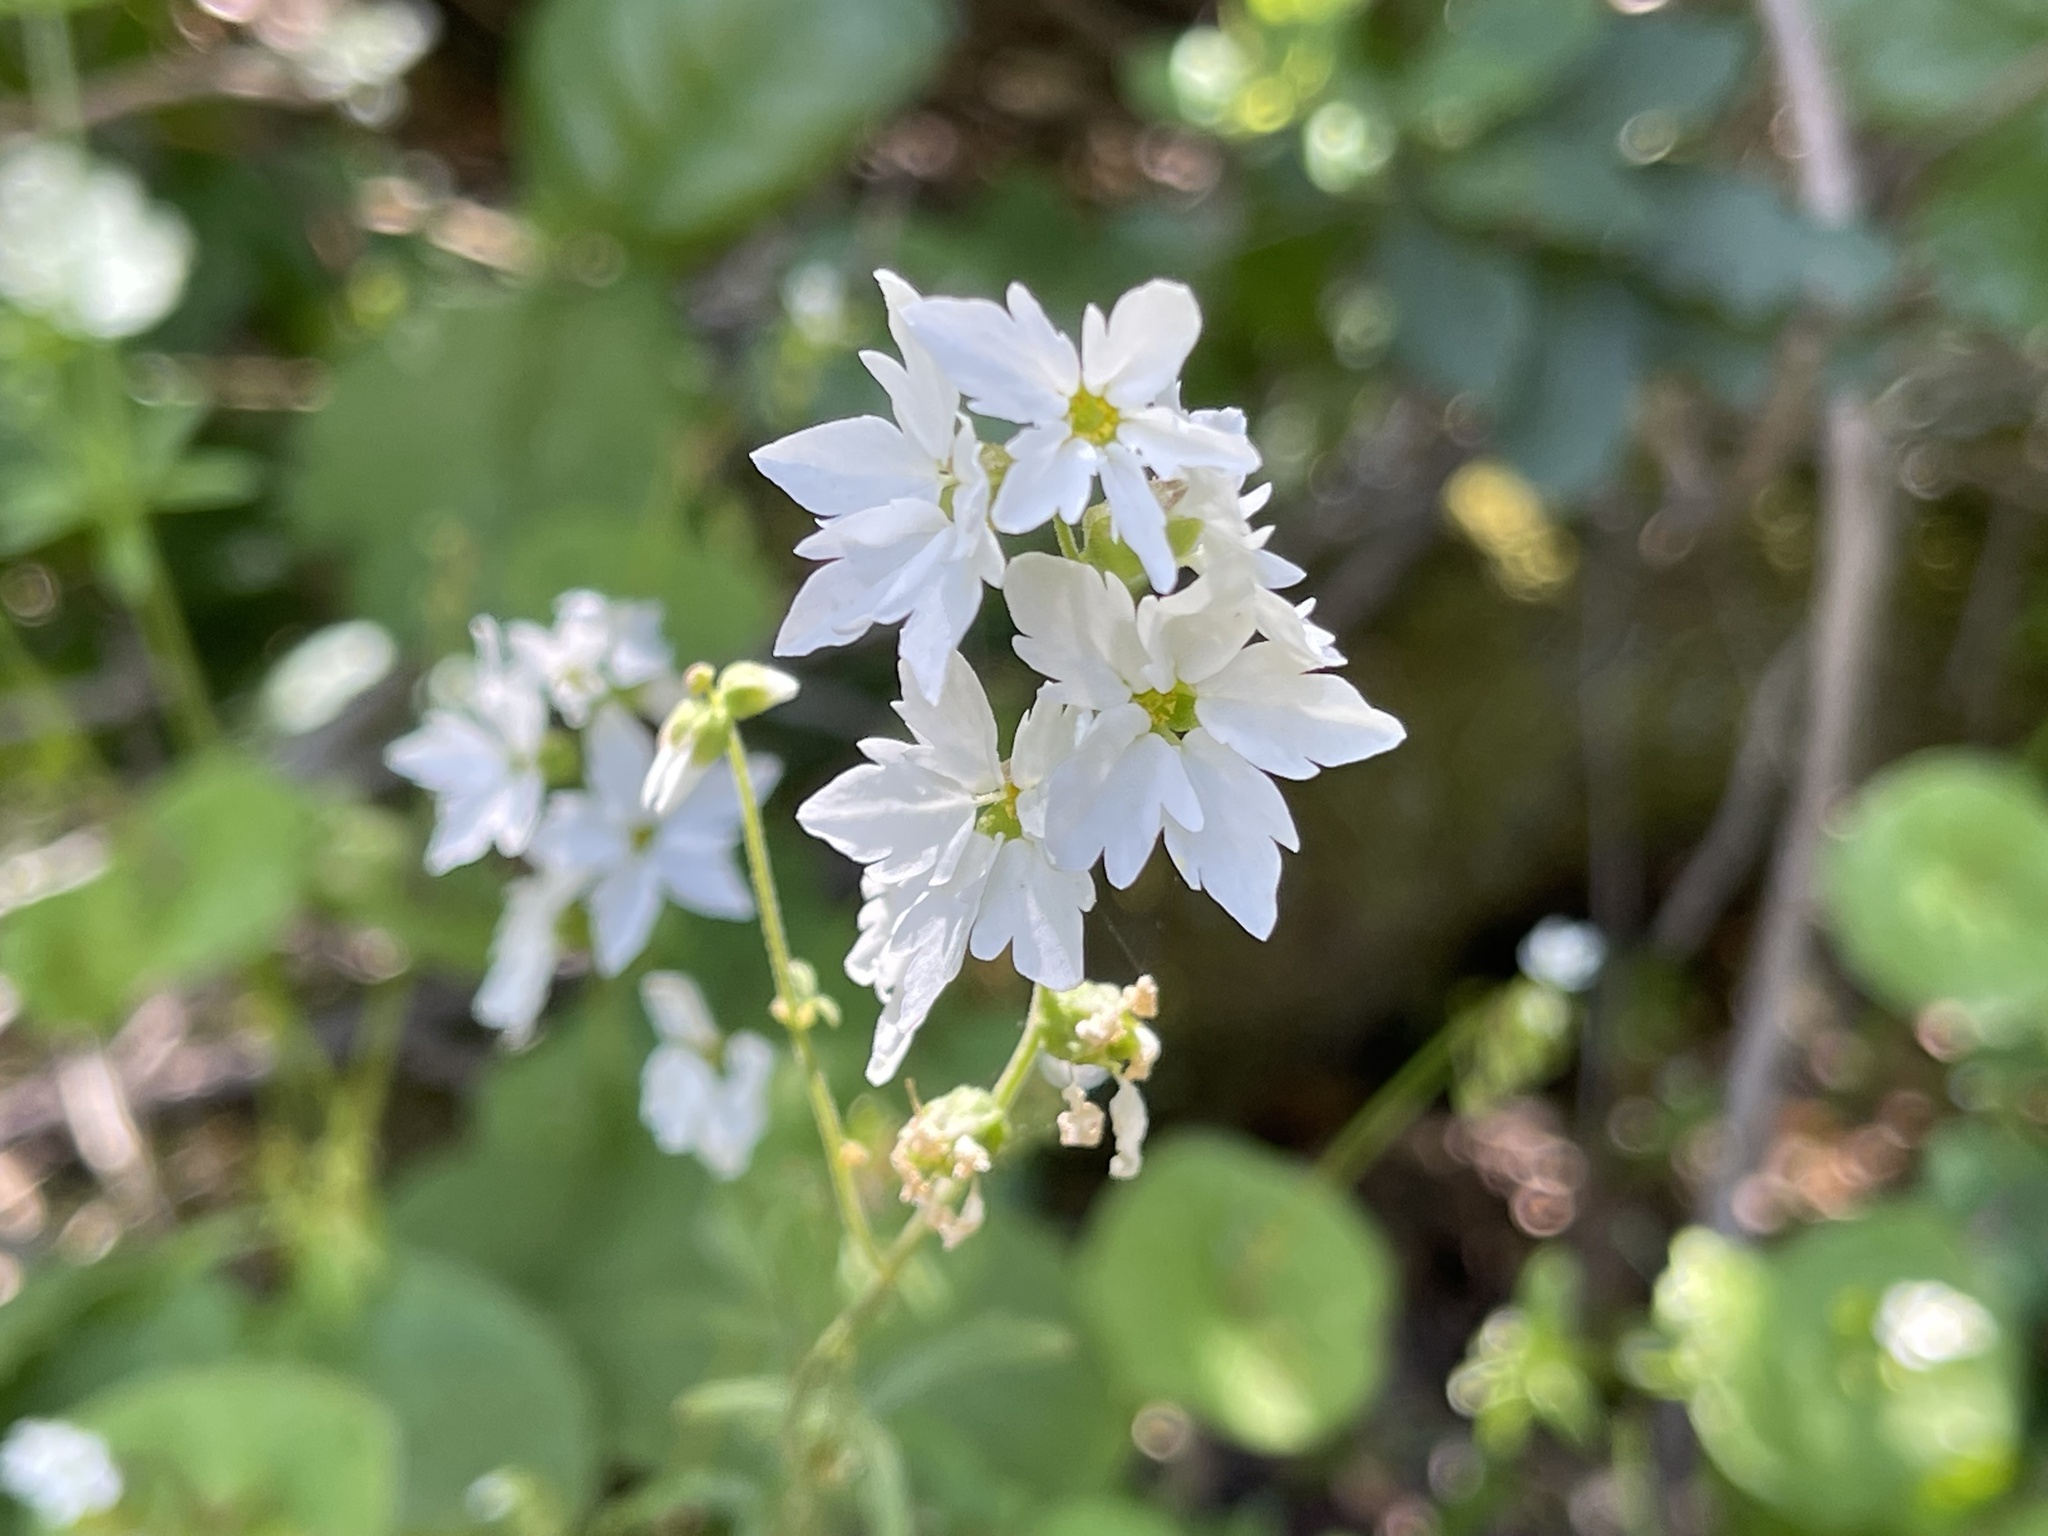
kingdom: Plantae
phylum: Tracheophyta
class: Magnoliopsida
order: Saxifragales
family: Saxifragaceae
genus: Lithophragma
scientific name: Lithophragma heterophyllum
